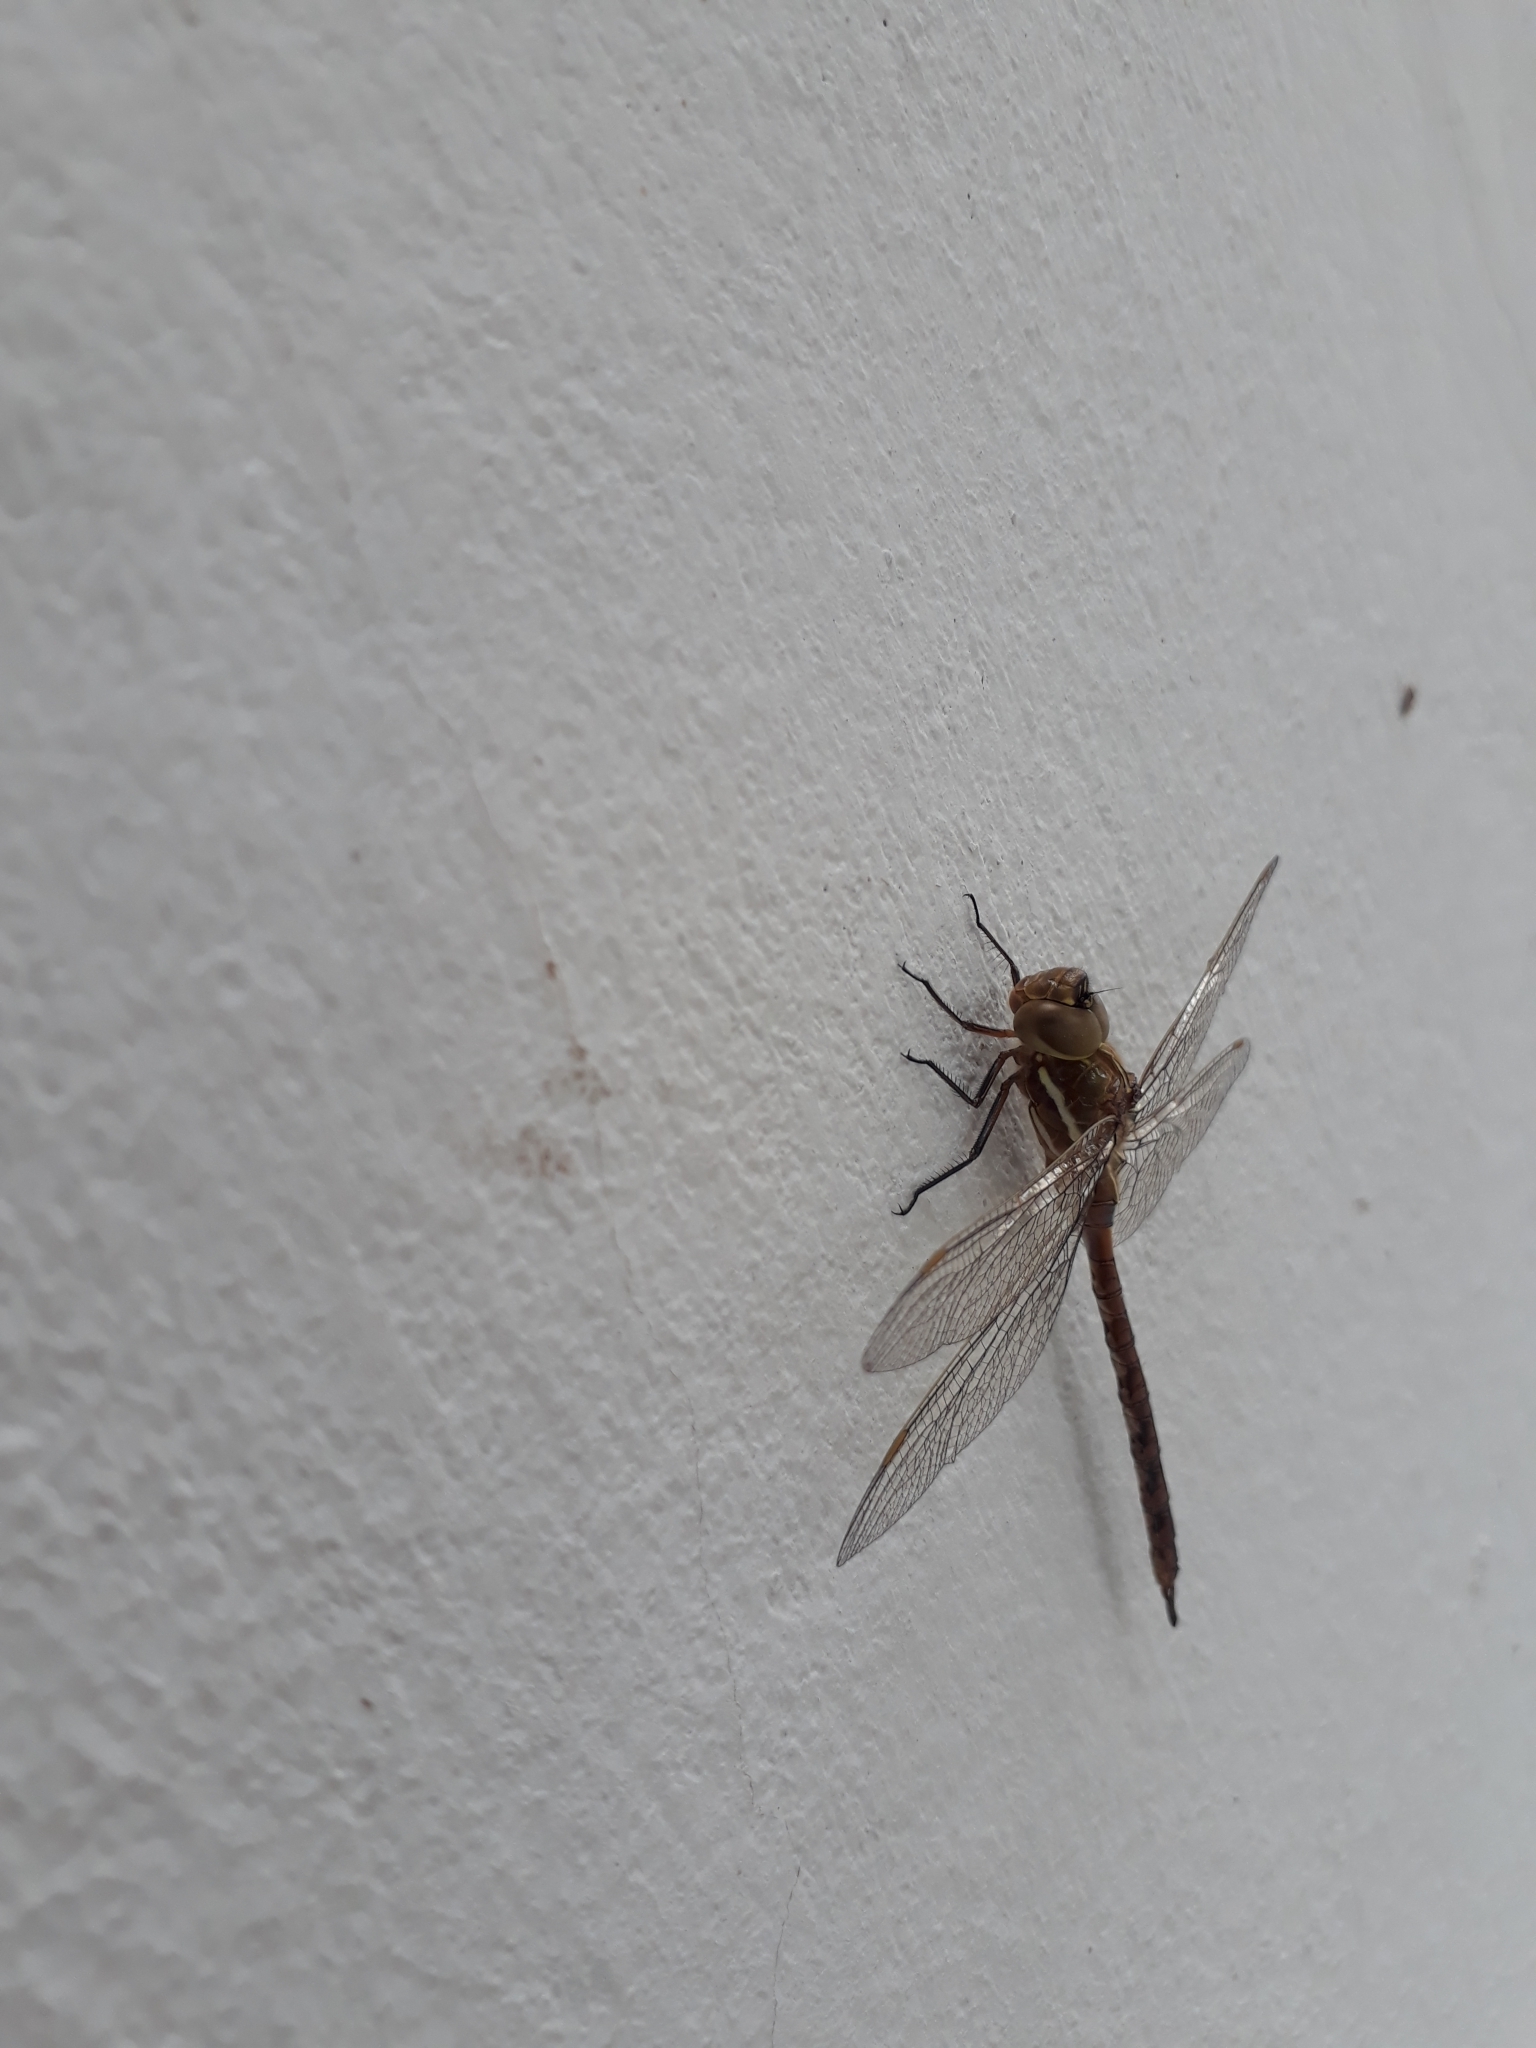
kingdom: Animalia
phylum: Arthropoda
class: Insecta
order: Odonata
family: Aeshnidae
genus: Rhionaeschna
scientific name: Rhionaeschna bonariensis
